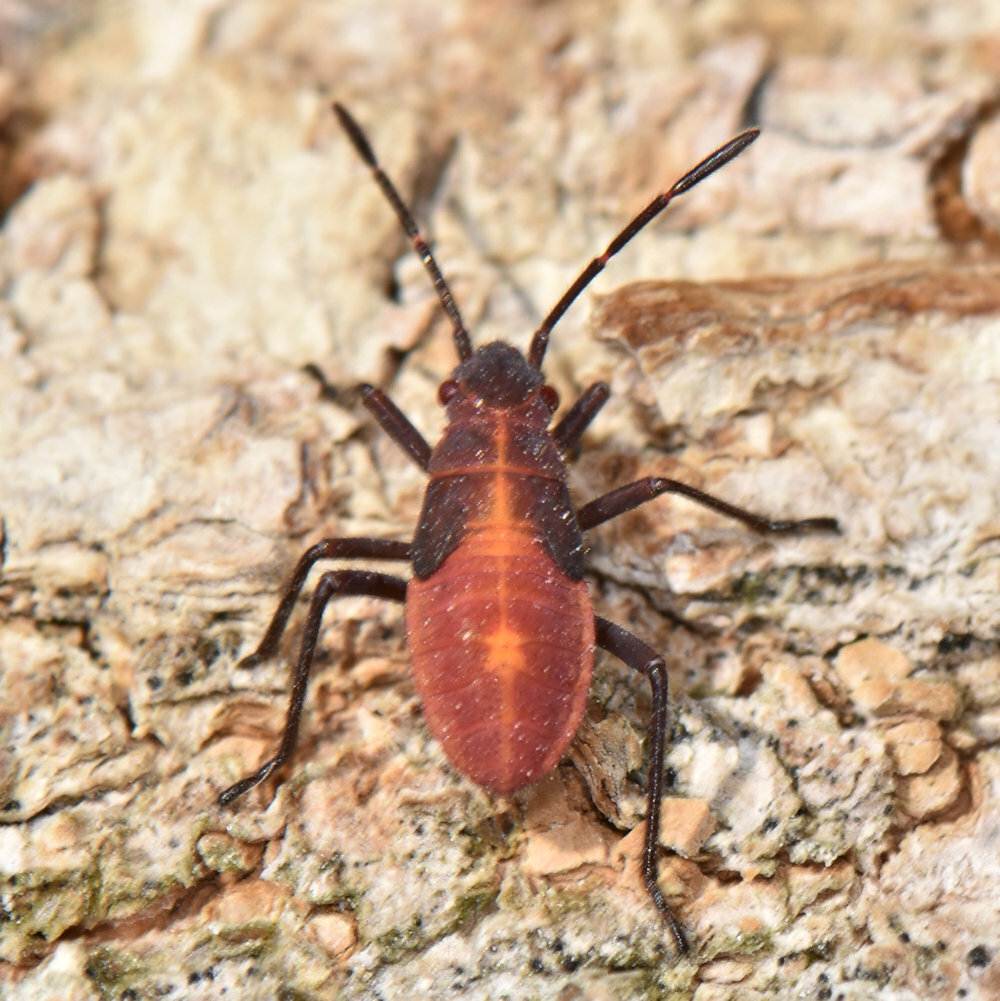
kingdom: Animalia
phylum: Arthropoda
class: Insecta
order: Hemiptera
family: Rhopalidae
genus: Boisea
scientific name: Boisea trivittata
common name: Boxelder bug
